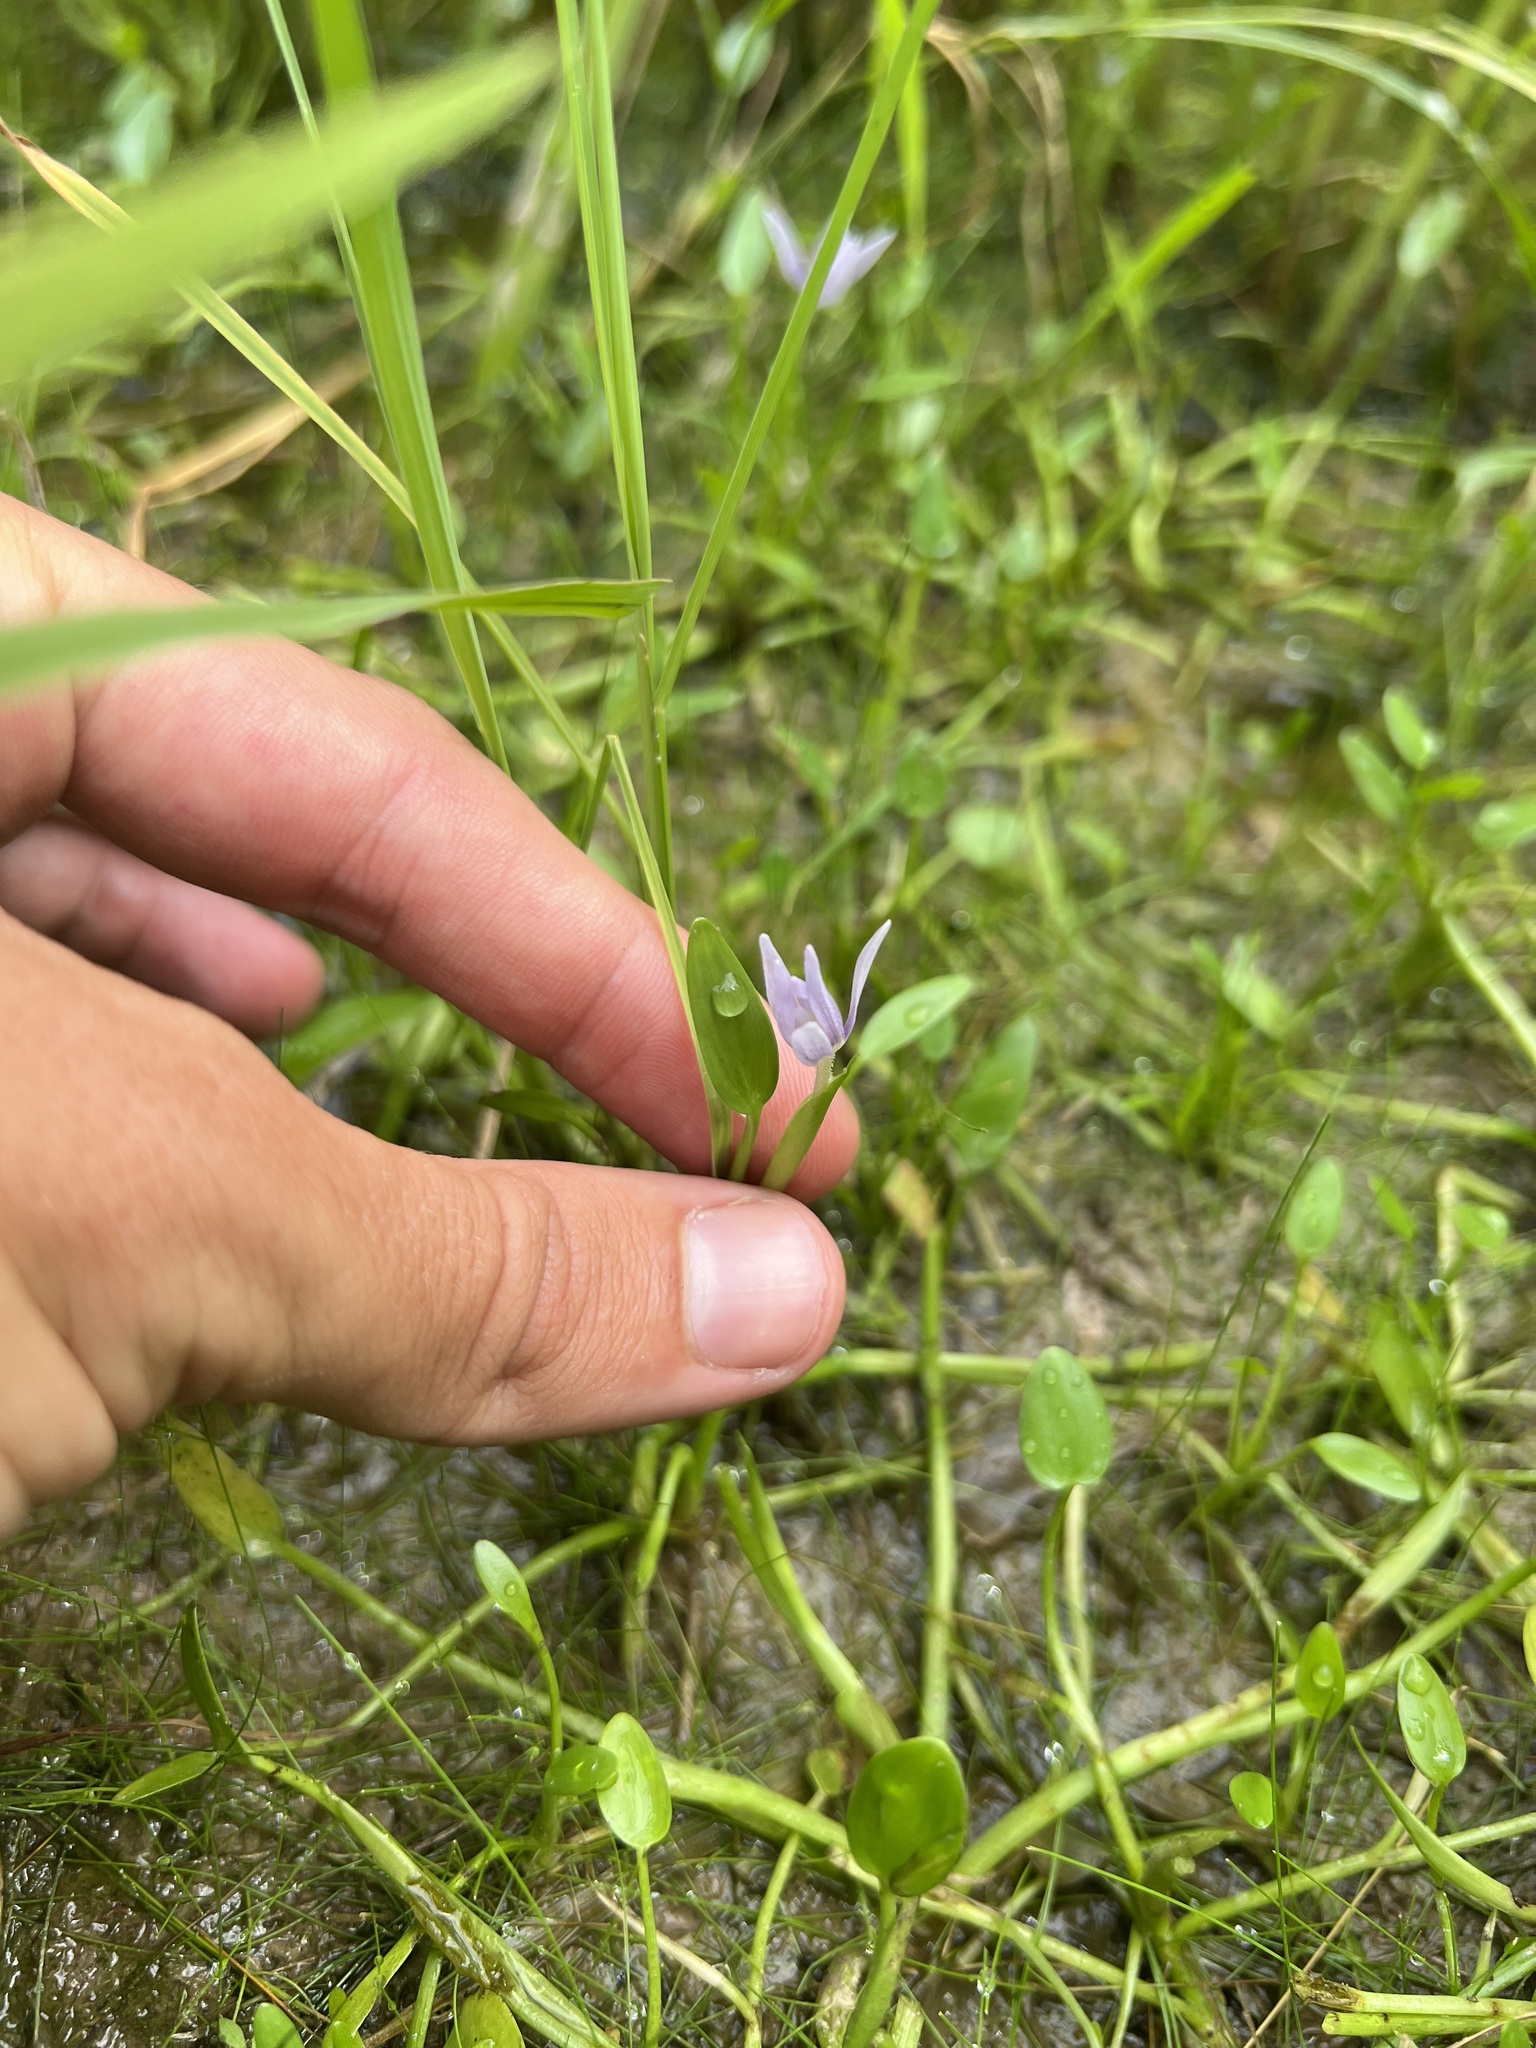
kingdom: Plantae
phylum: Tracheophyta
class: Liliopsida
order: Commelinales
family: Pontederiaceae
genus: Heteranthera
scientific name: Heteranthera limosa
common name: Blue mud-plantain
